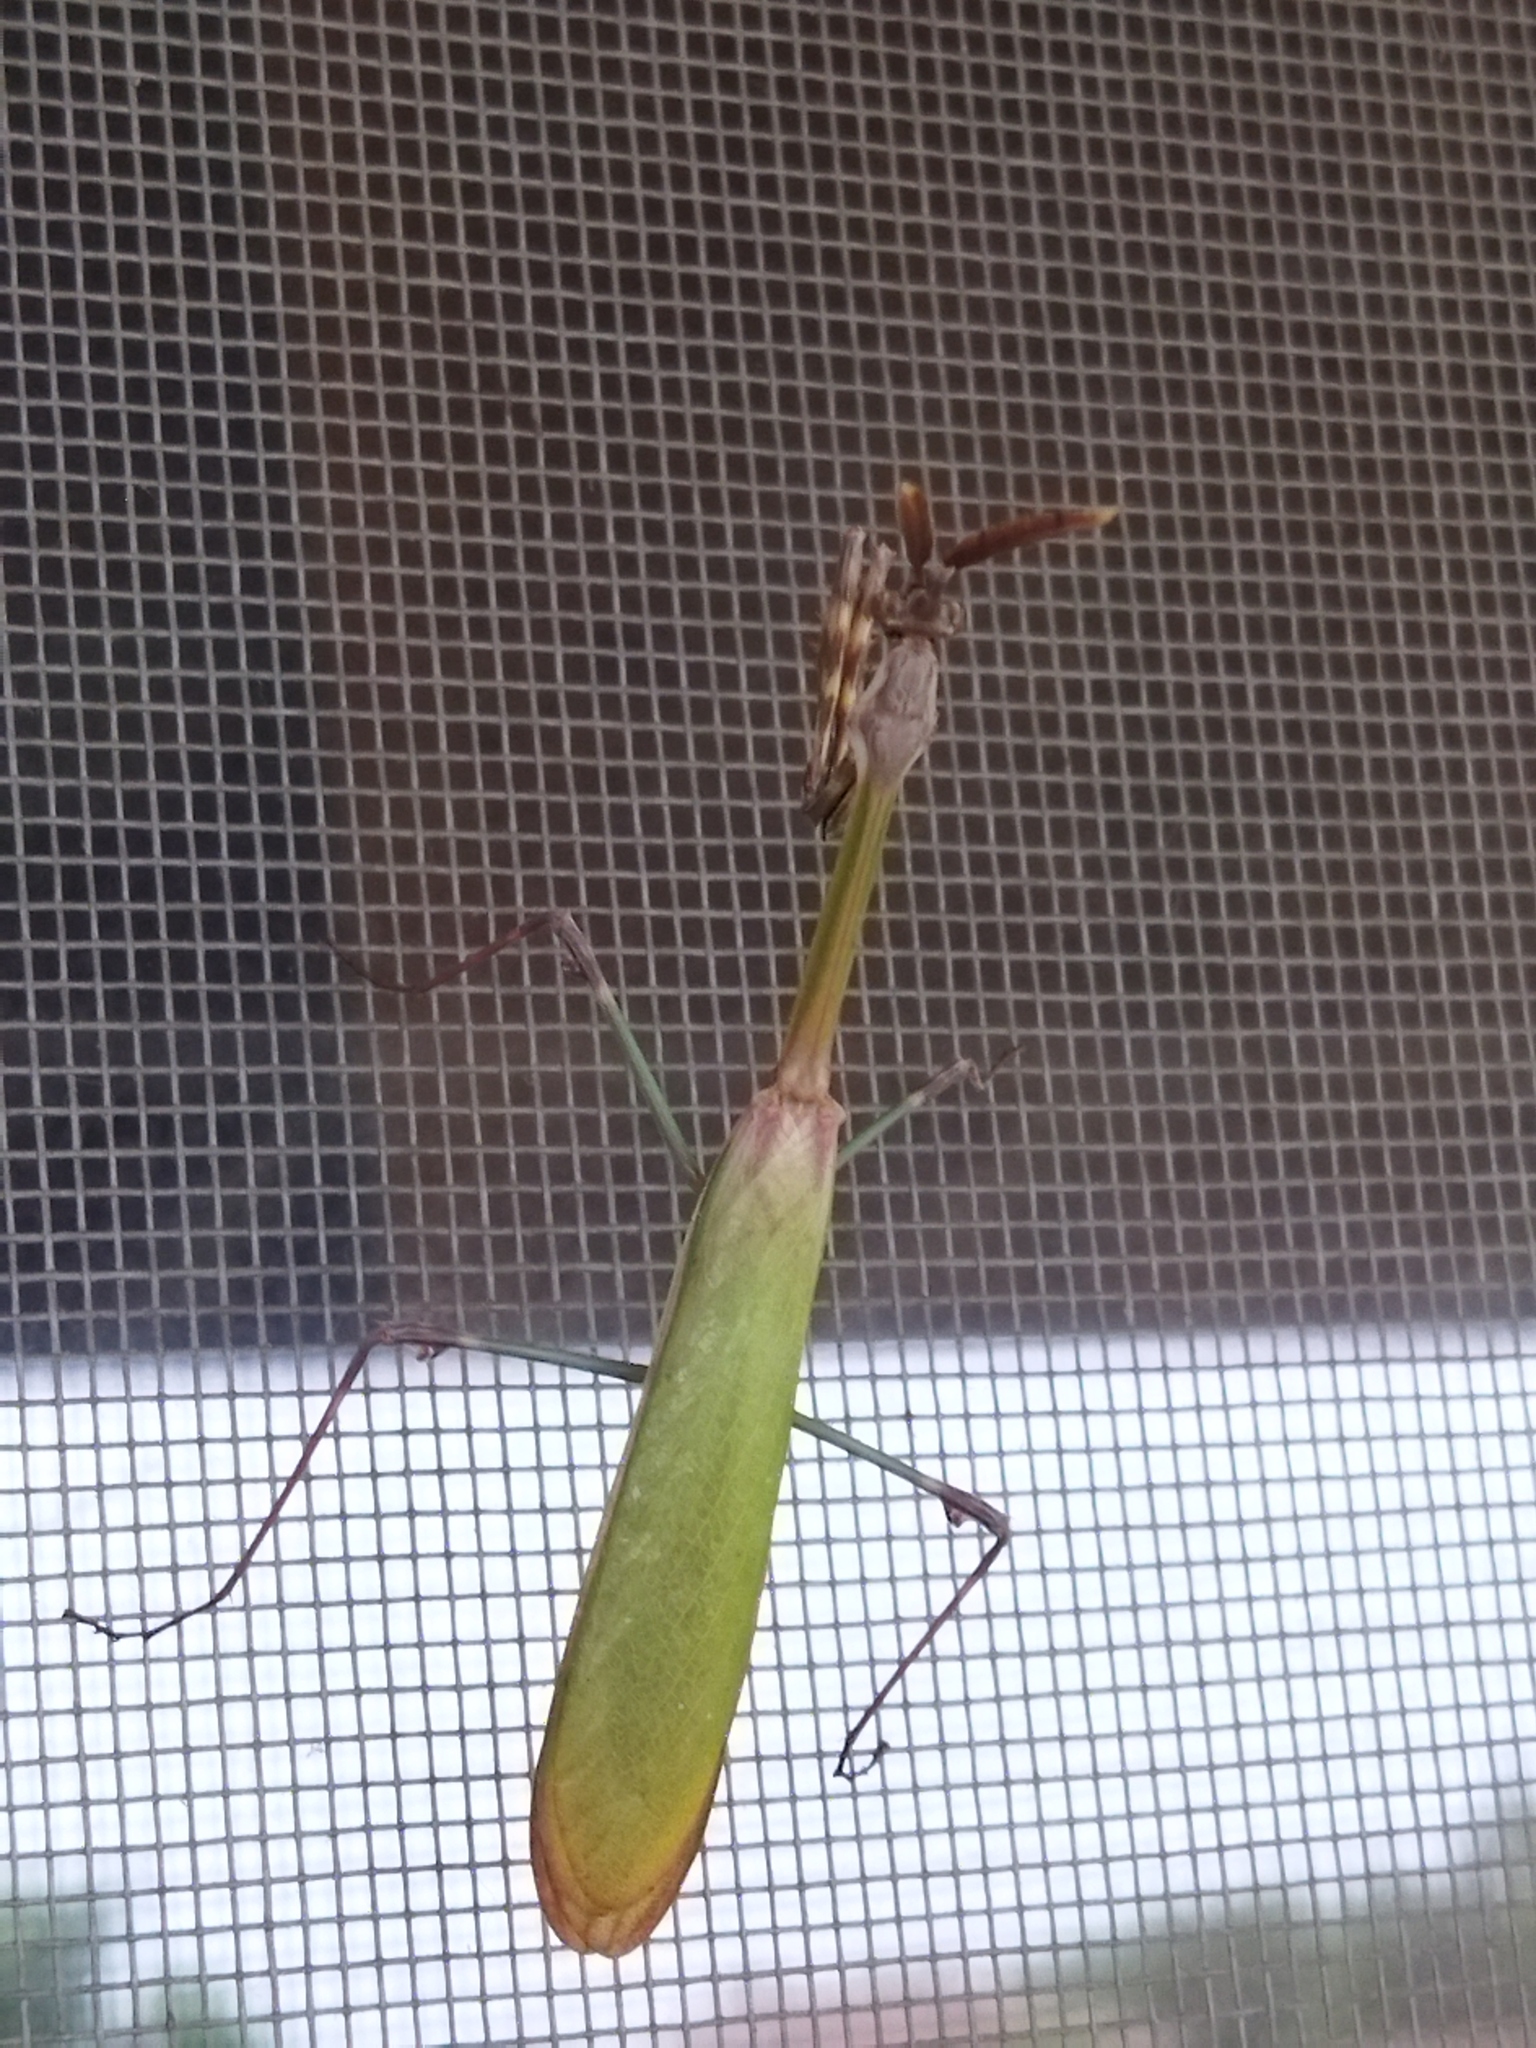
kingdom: Animalia
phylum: Arthropoda
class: Insecta
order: Mantodea
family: Empusidae
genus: Empusa
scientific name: Empusa fasciata
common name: Devil's mare
